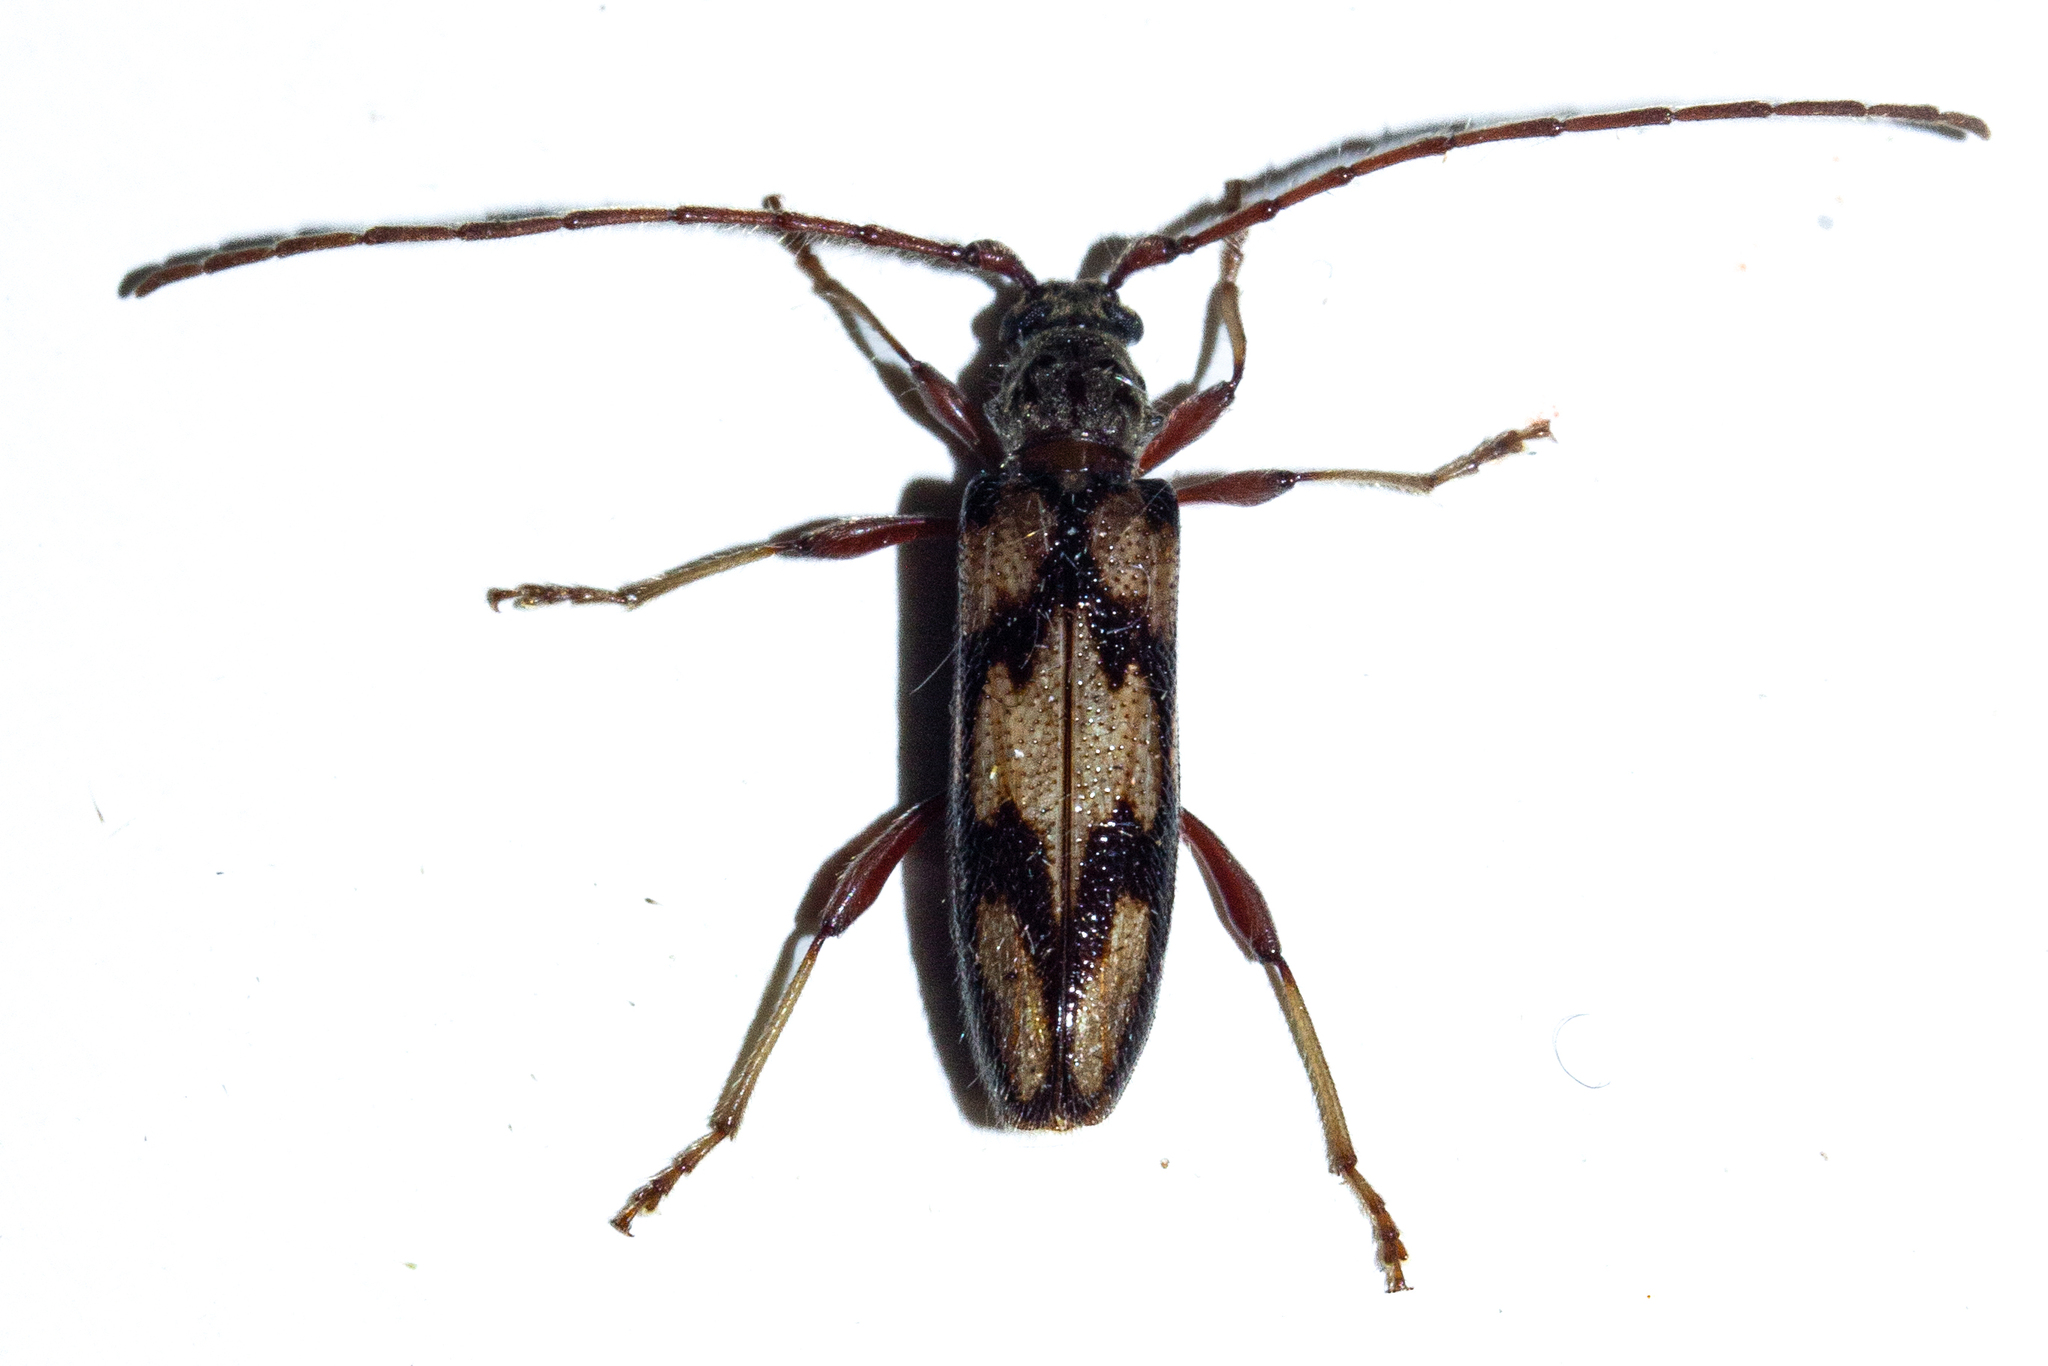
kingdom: Animalia
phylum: Arthropoda
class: Insecta
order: Coleoptera
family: Cerambycidae
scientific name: Cerambycidae
